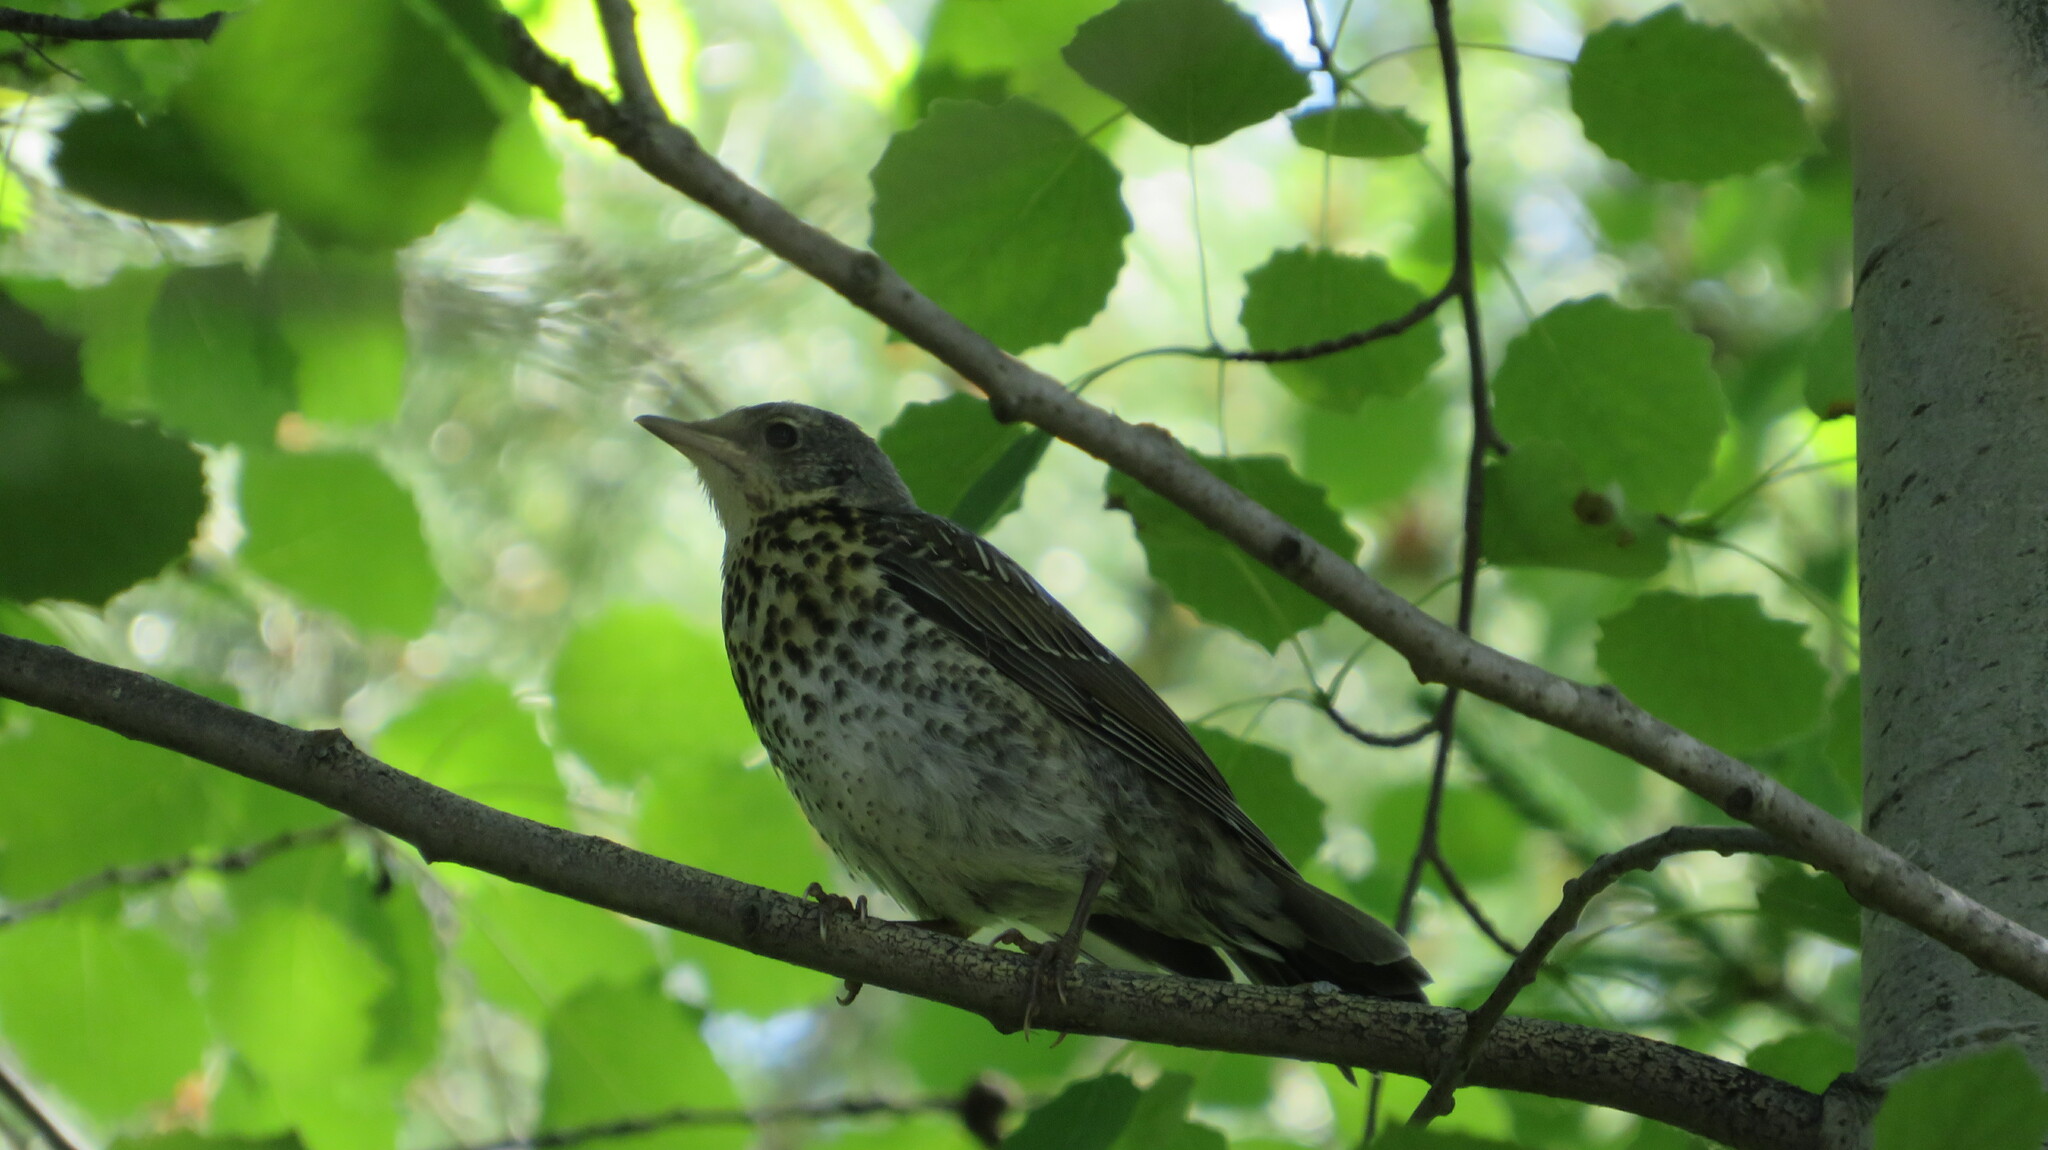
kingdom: Animalia
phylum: Chordata
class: Aves
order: Passeriformes
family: Turdidae
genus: Turdus
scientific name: Turdus pilaris
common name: Fieldfare
